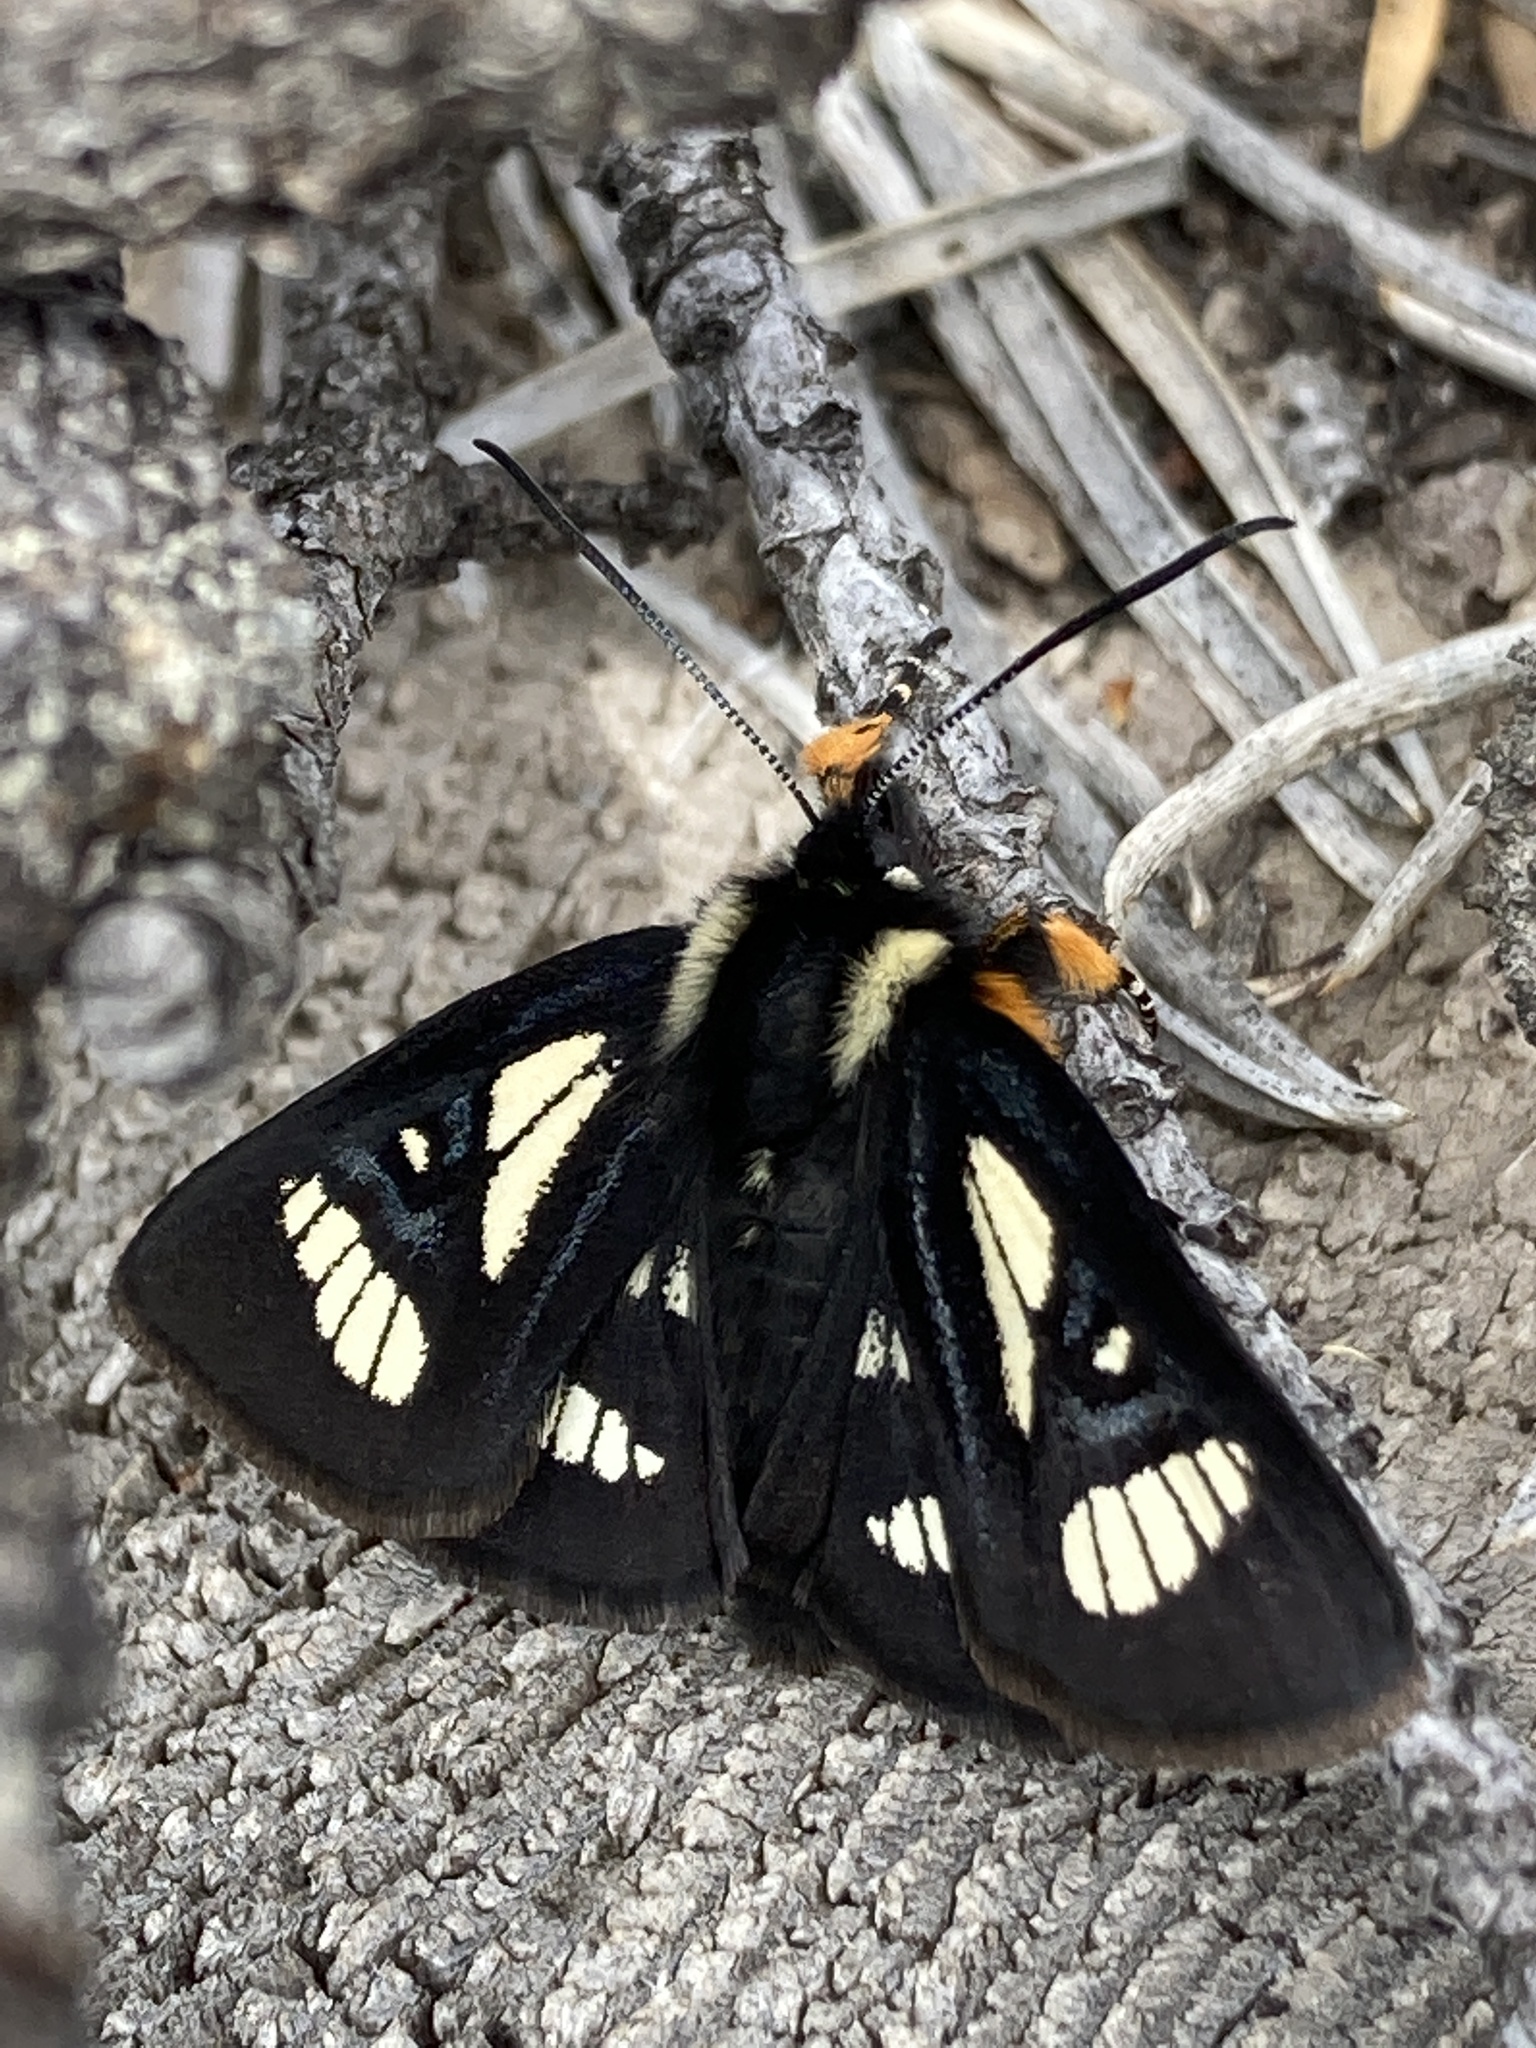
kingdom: Animalia
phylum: Arthropoda
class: Insecta
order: Lepidoptera
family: Noctuidae
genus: Alypia
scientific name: Alypia maccullochii
